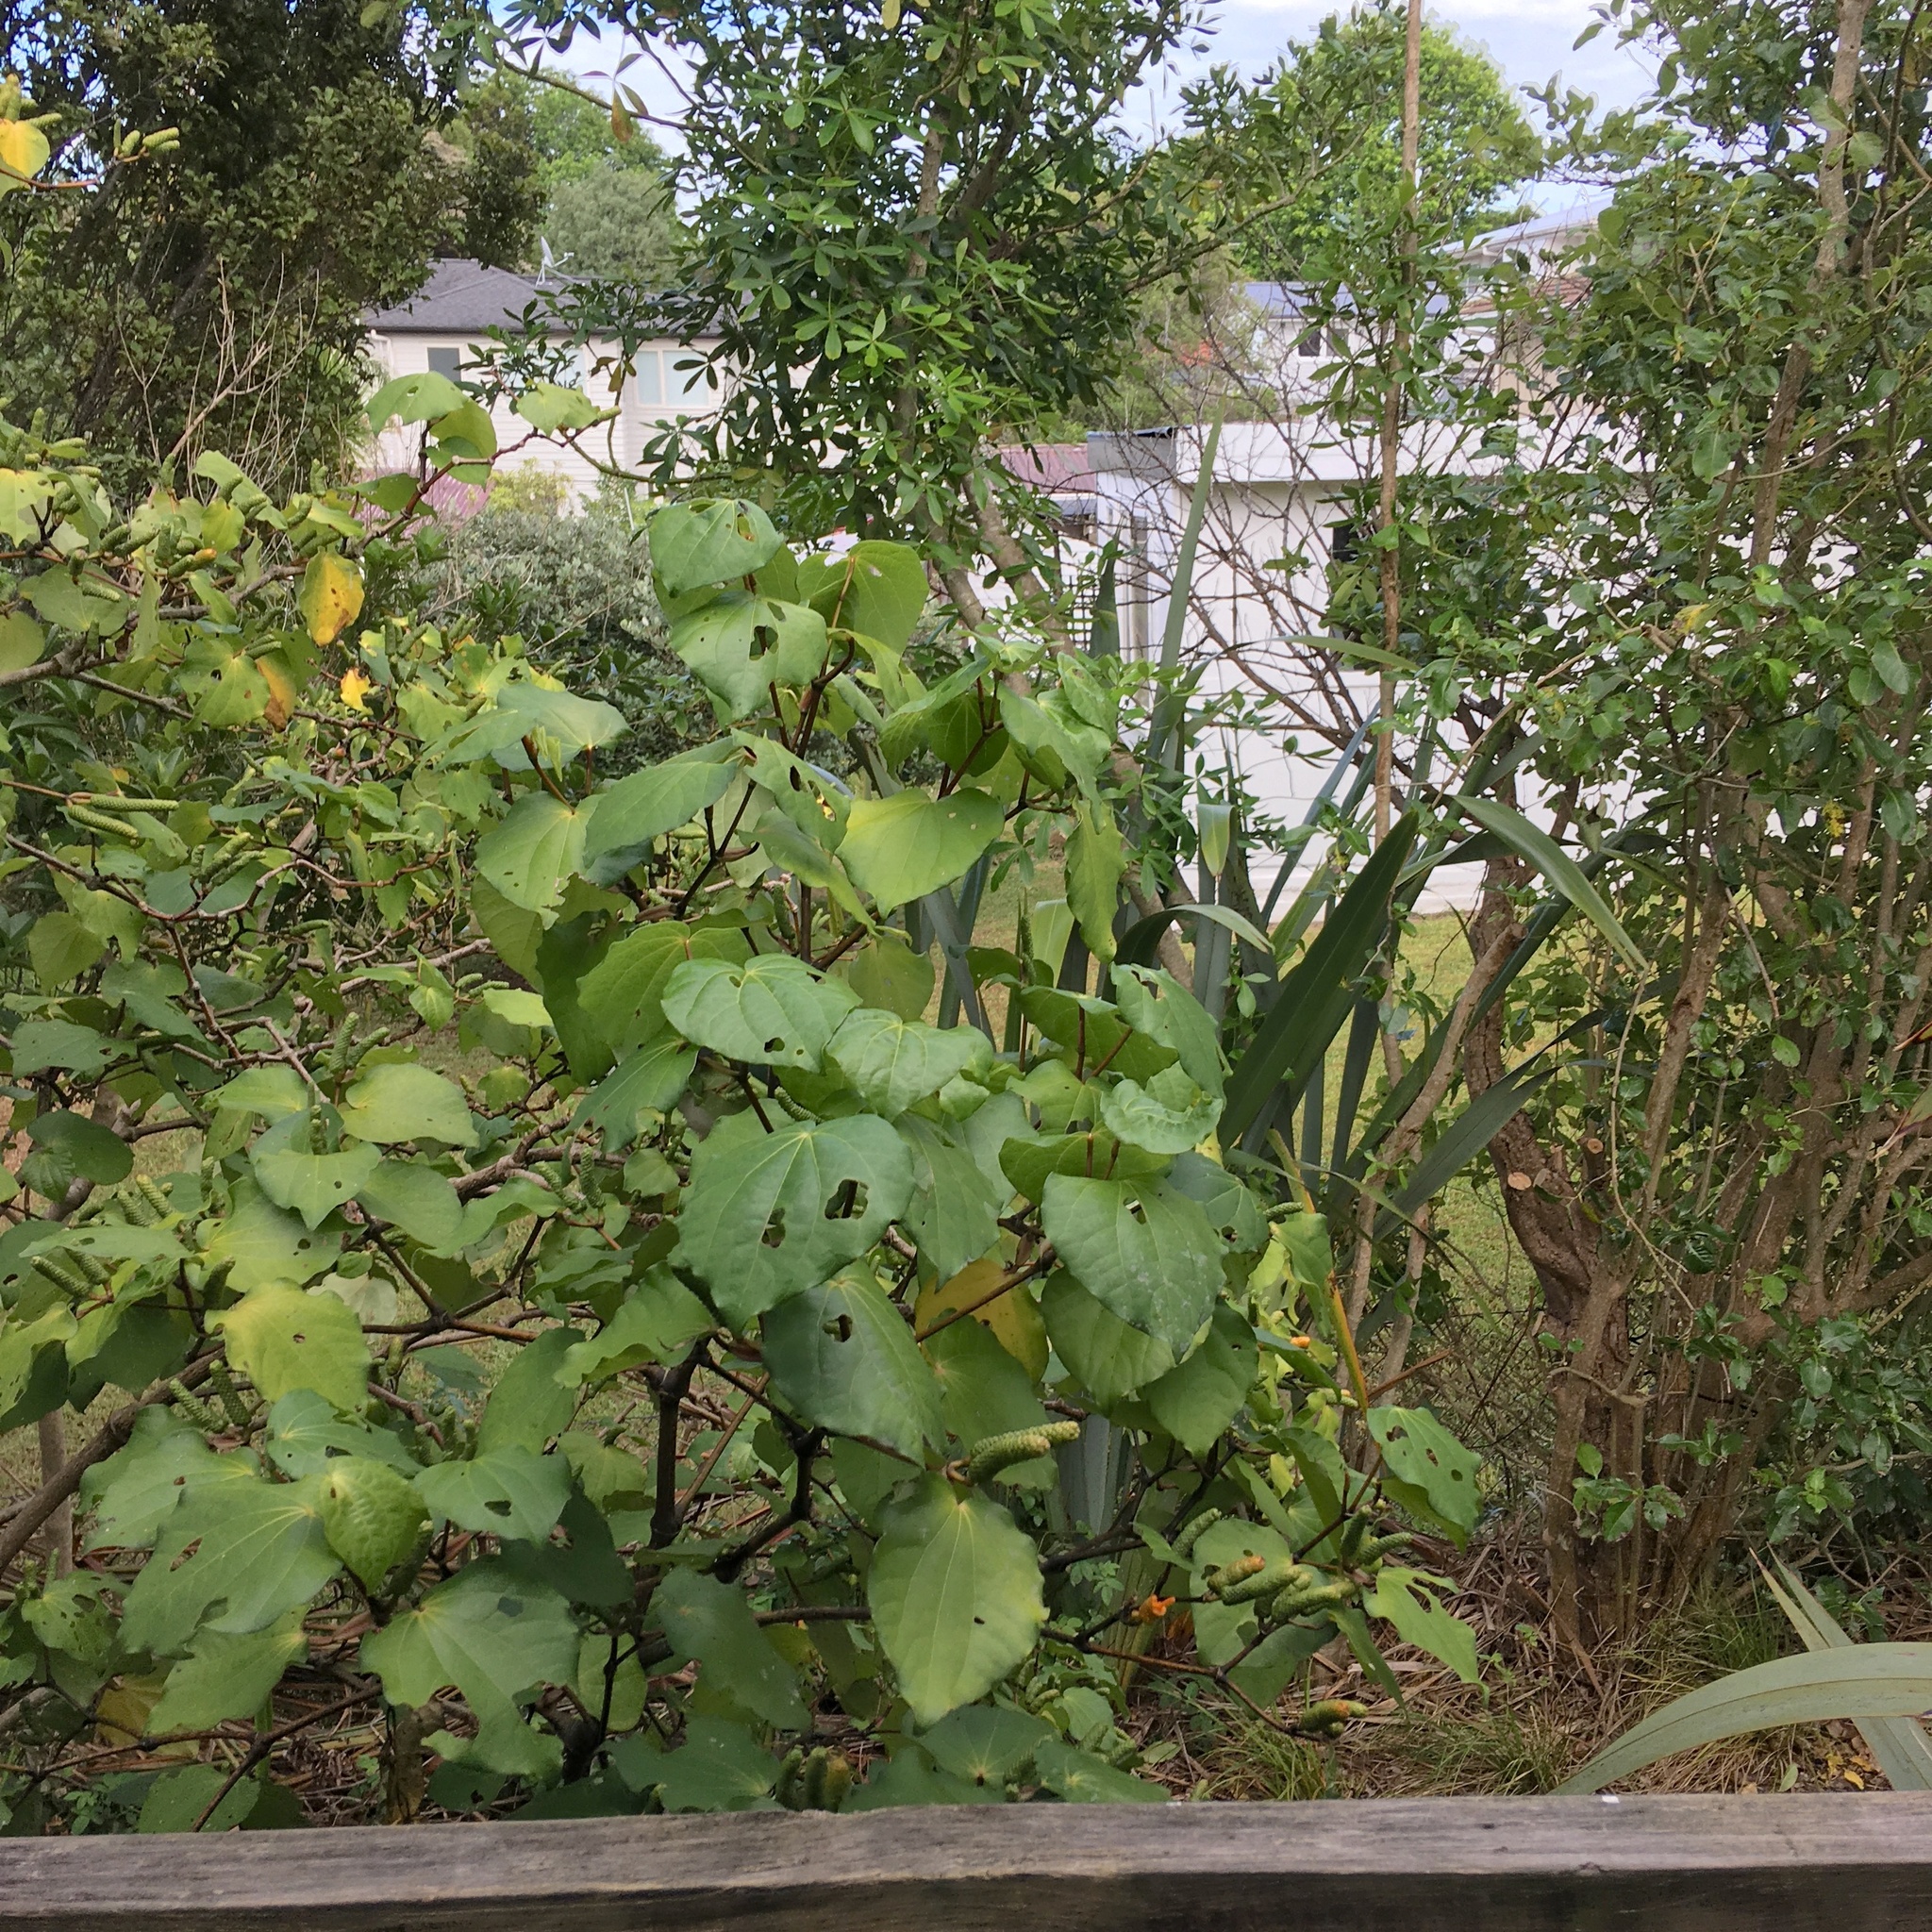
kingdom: Plantae
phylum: Tracheophyta
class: Magnoliopsida
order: Piperales
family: Piperaceae
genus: Macropiper
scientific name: Macropiper excelsum
